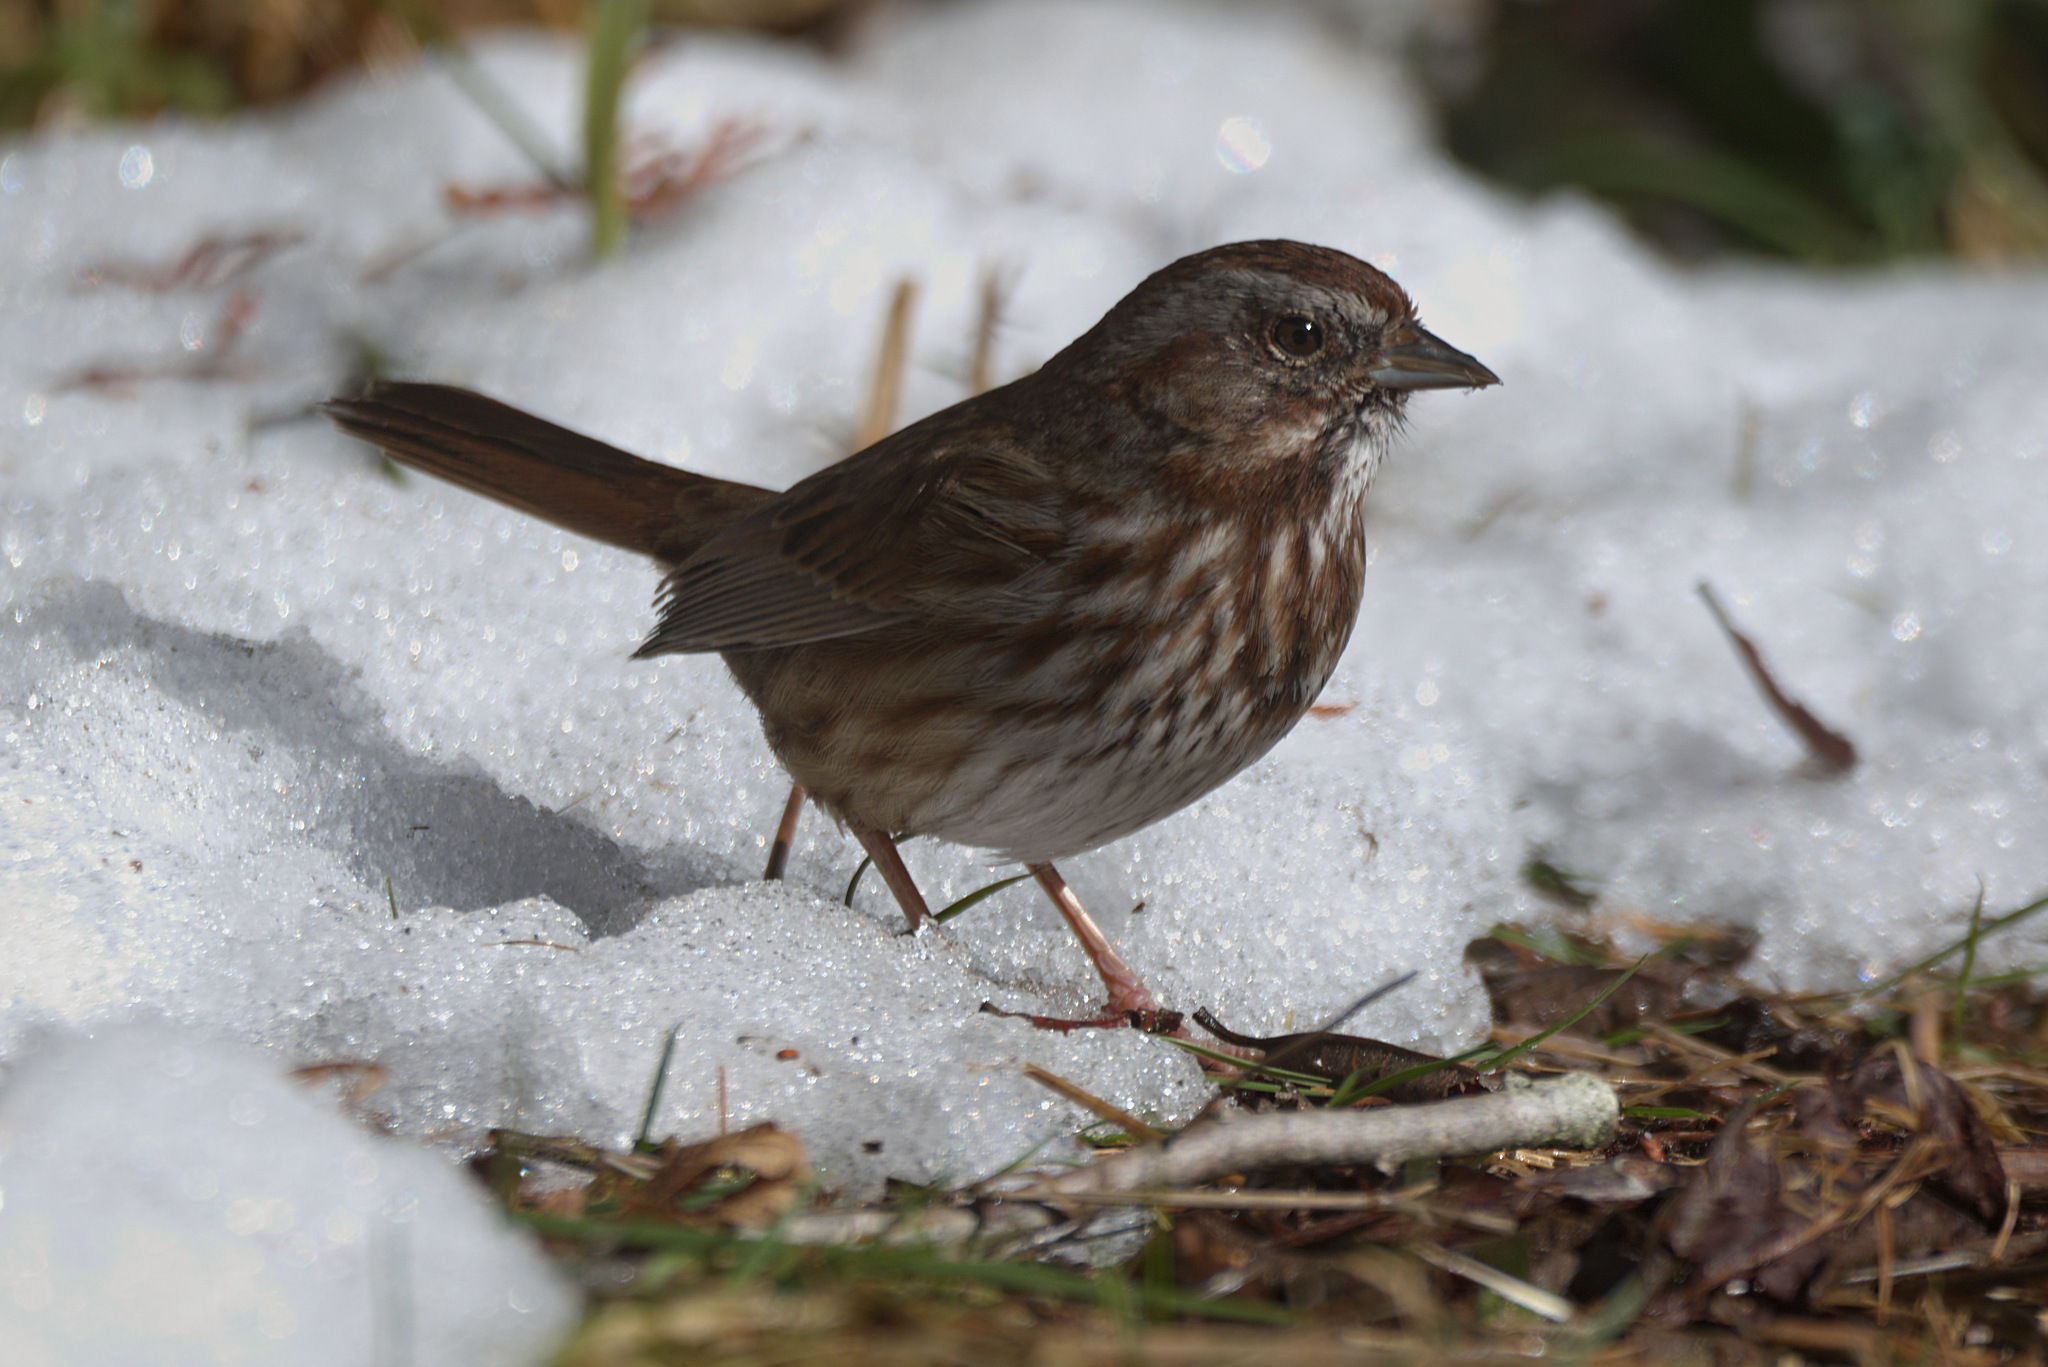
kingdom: Animalia
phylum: Chordata
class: Aves
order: Passeriformes
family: Passerellidae
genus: Melospiza
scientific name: Melospiza melodia
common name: Song sparrow
